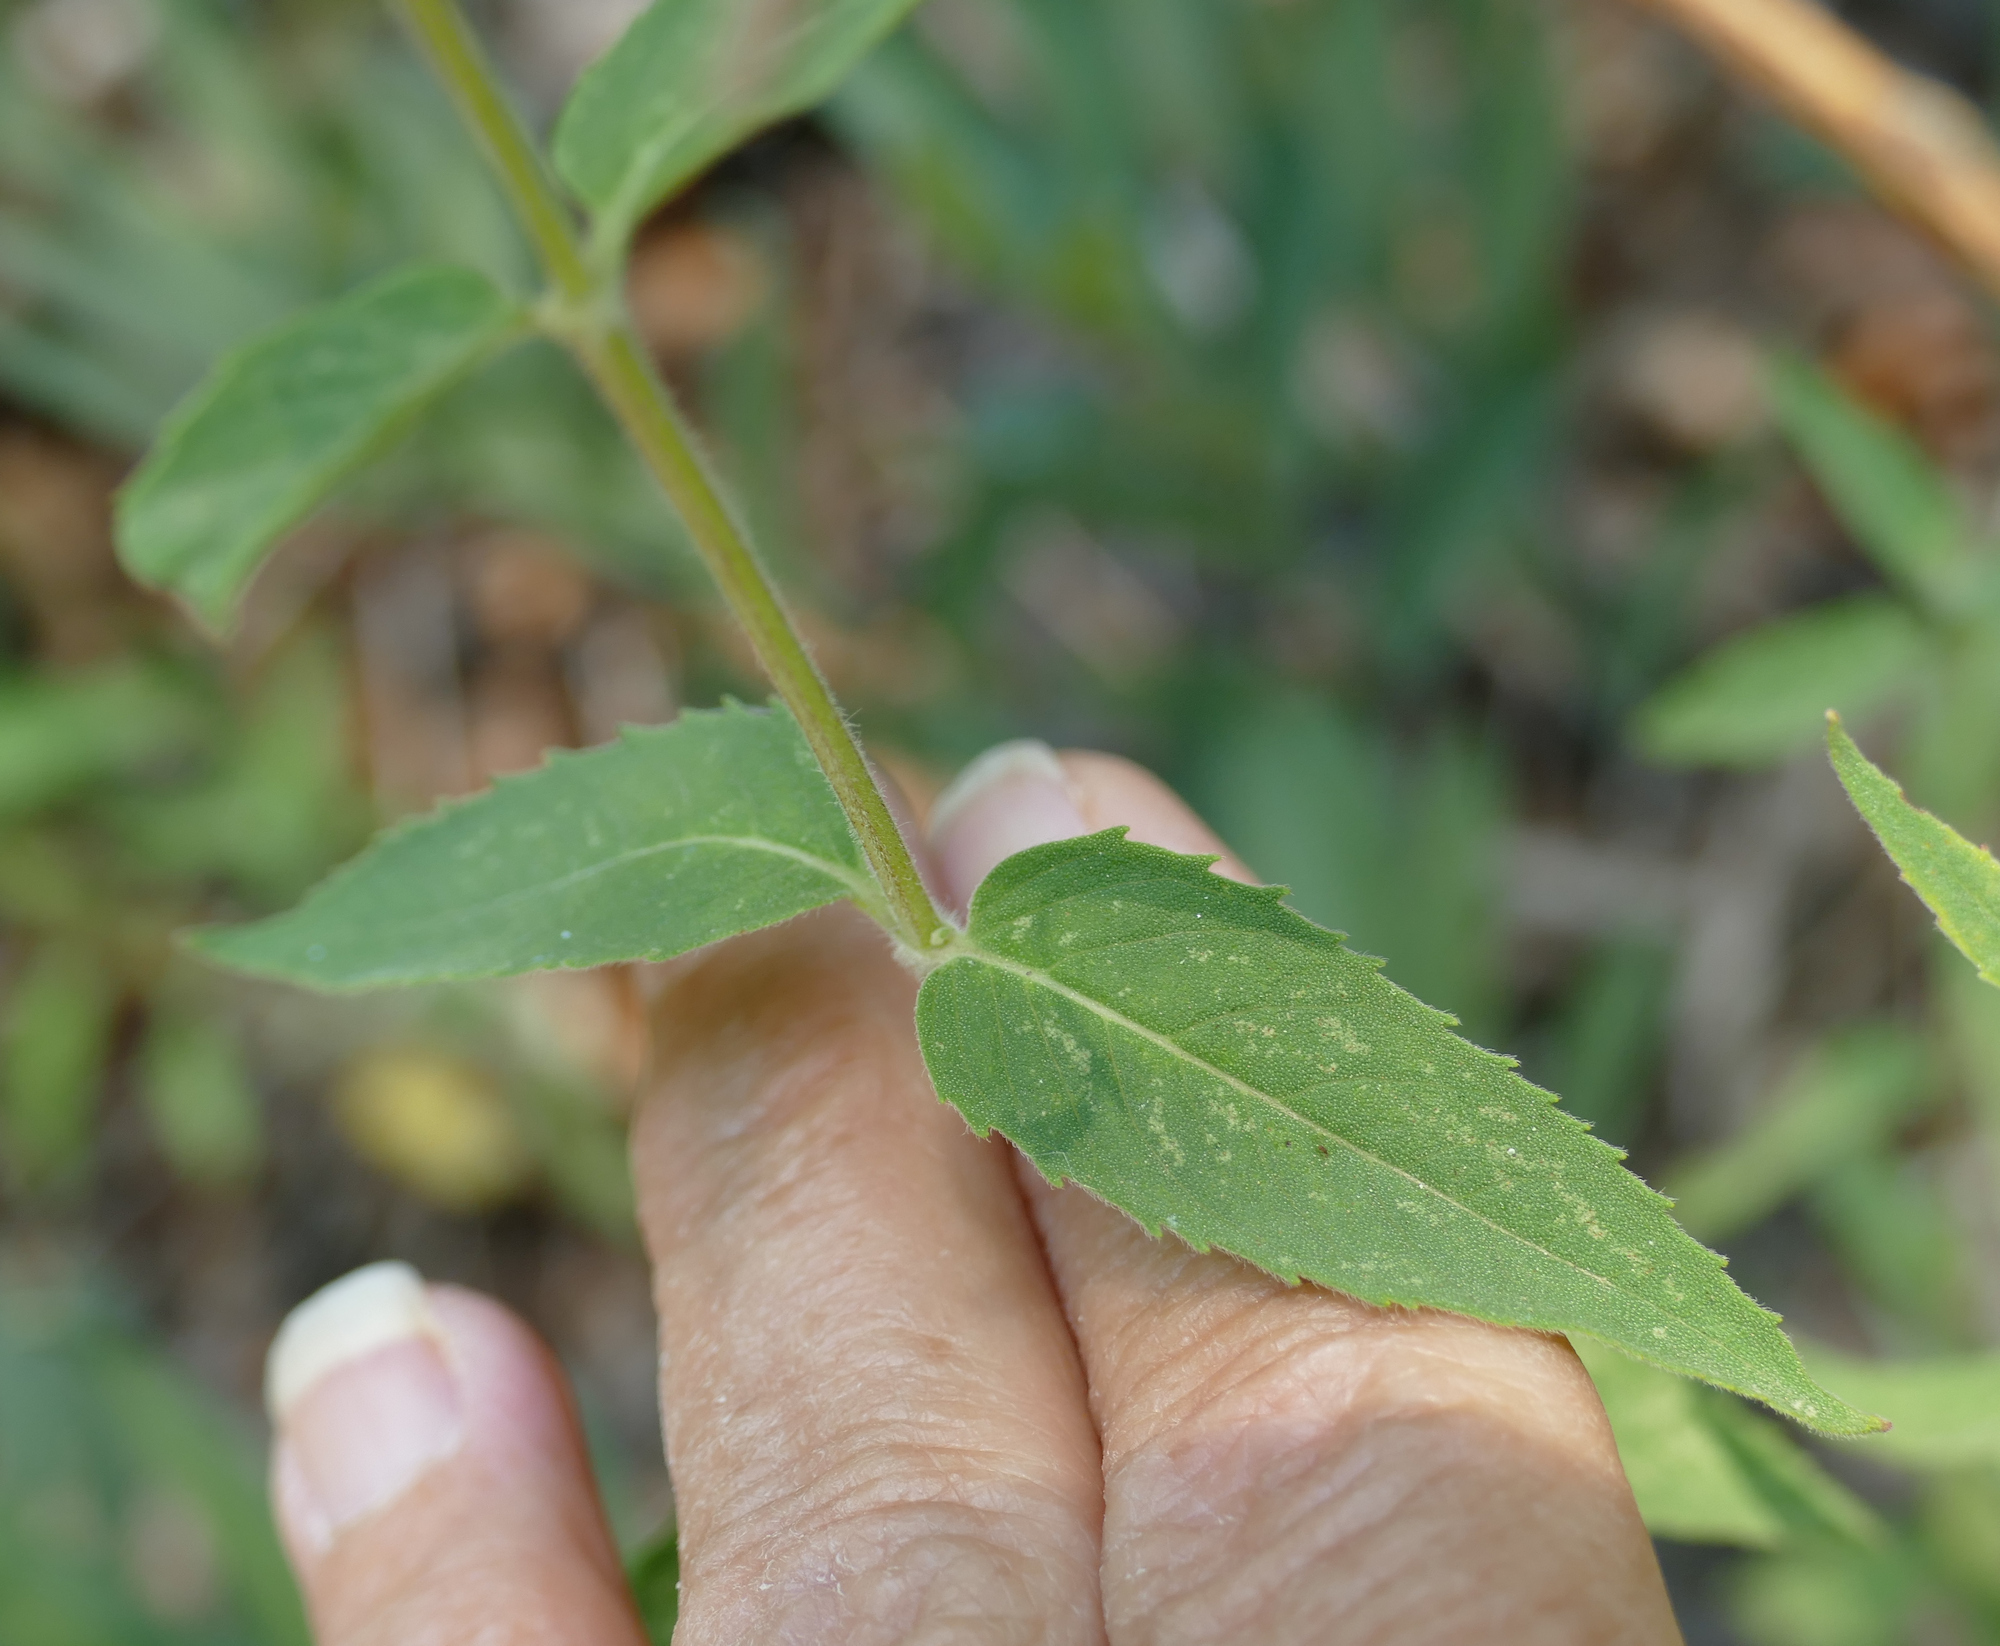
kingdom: Plantae
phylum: Tracheophyta
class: Magnoliopsida
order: Lamiales
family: Lamiaceae
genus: Monarda
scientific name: Monarda fistulosa
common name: Purple beebalm
